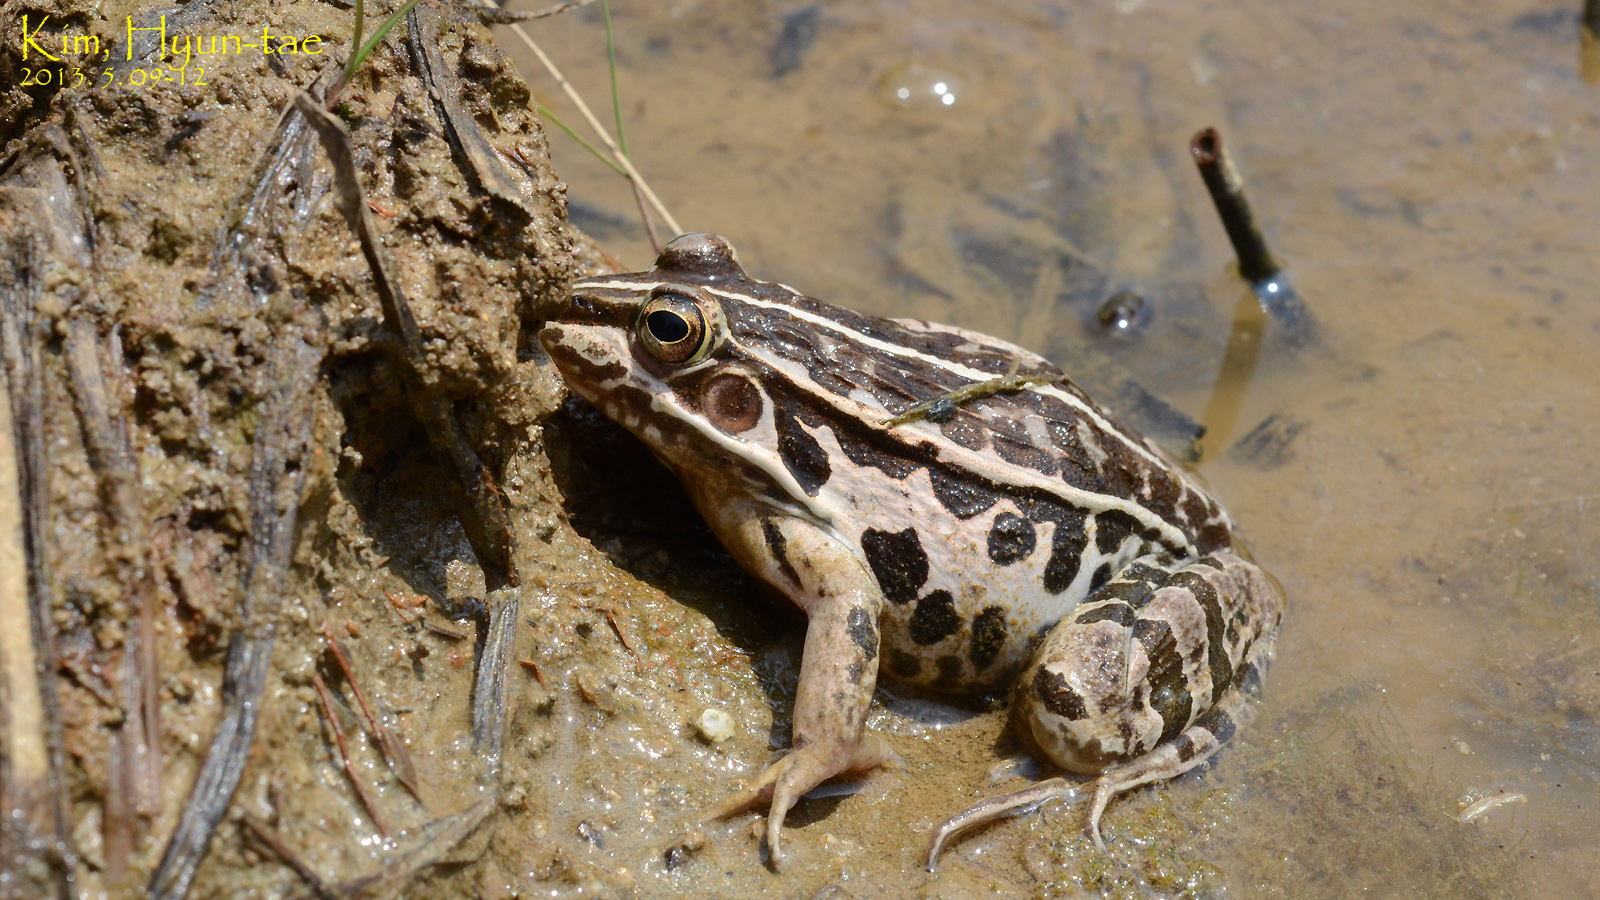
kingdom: Animalia
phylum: Chordata
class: Amphibia
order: Anura
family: Ranidae
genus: Pelophylax
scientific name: Pelophylax nigromaculatus
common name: Black-spotted pond frog
